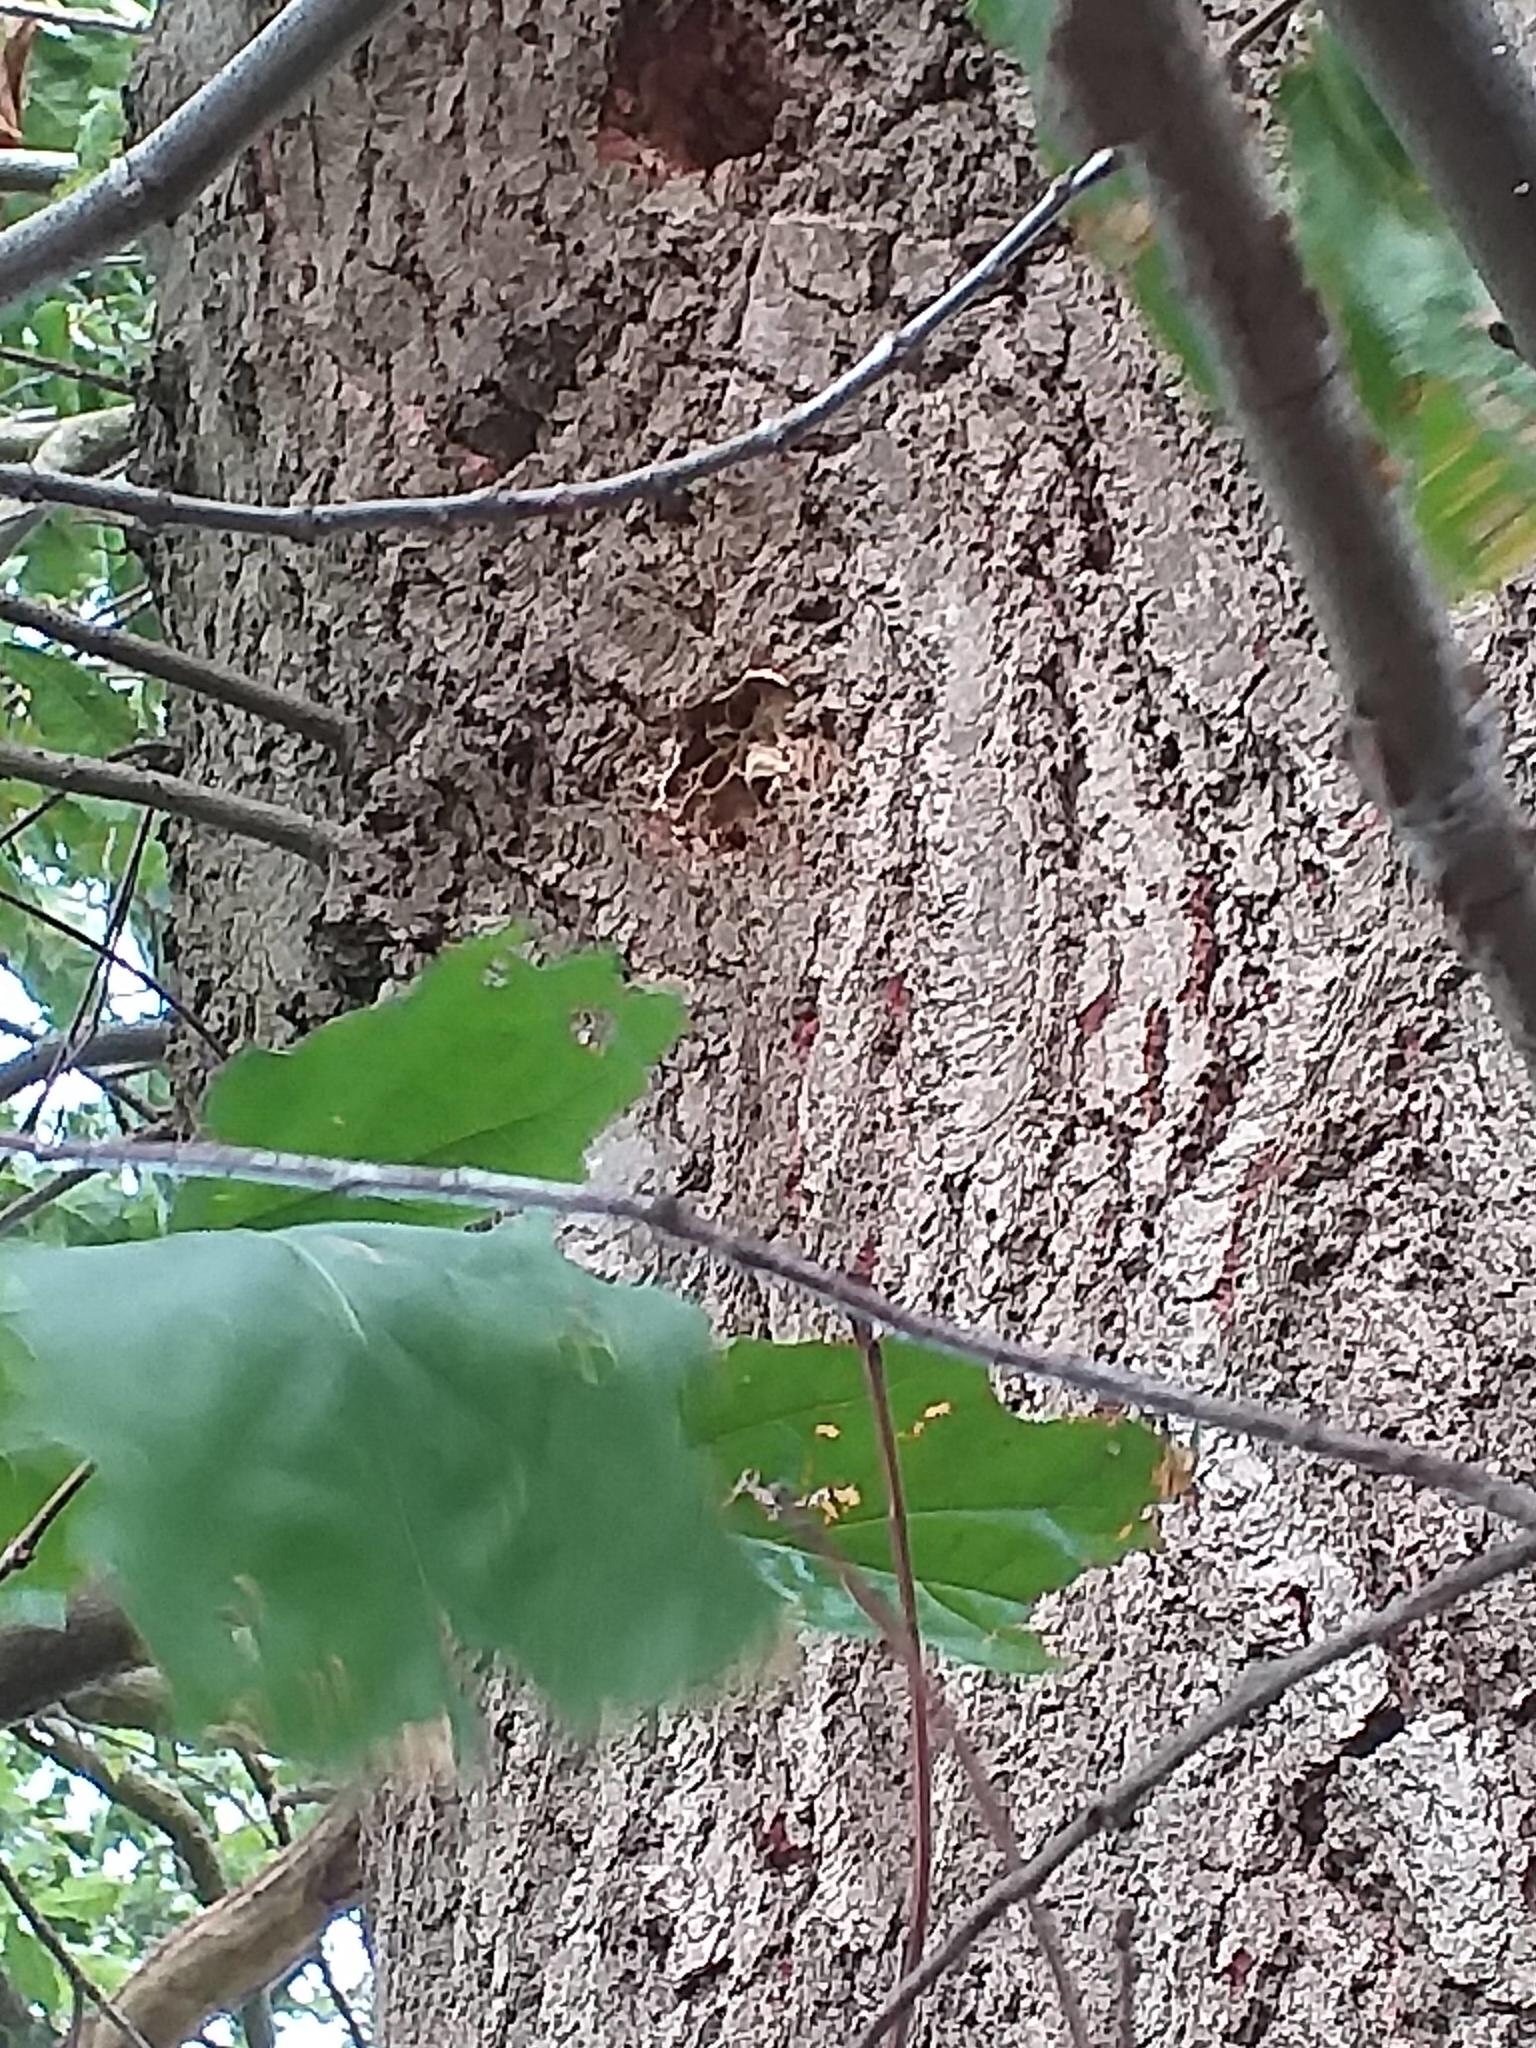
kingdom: Animalia
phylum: Arthropoda
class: Insecta
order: Hymenoptera
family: Vespidae
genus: Vespa
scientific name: Vespa crabro
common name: Hornet
